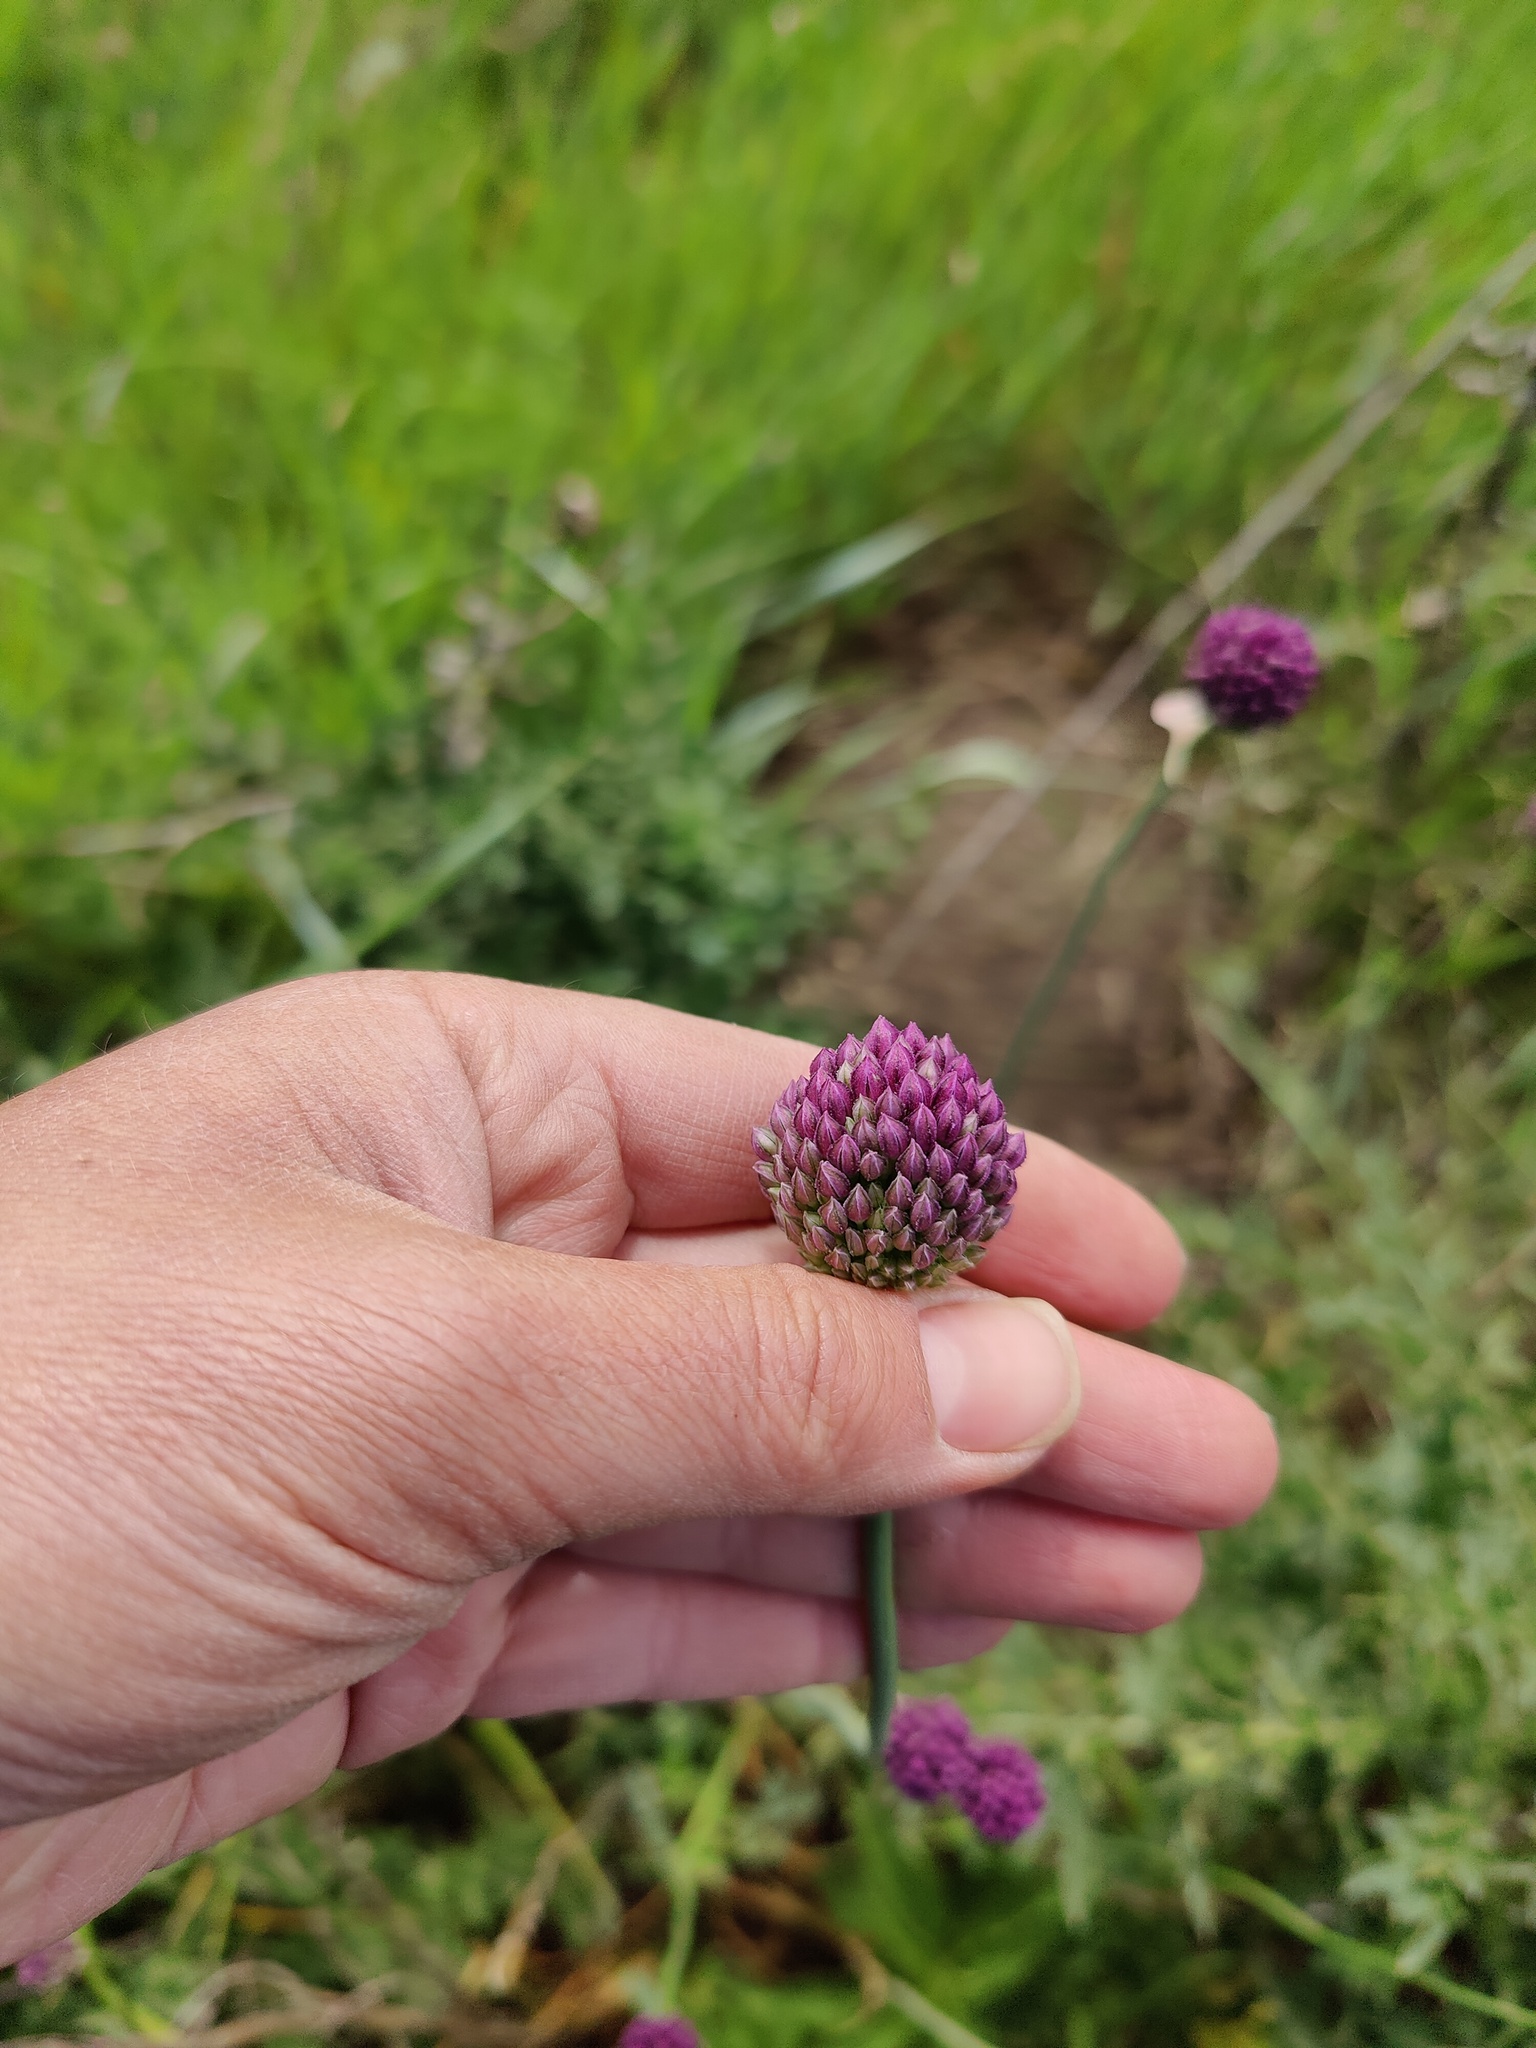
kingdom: Plantae
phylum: Tracheophyta
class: Liliopsida
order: Asparagales
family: Amaryllidaceae
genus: Allium
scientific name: Allium rotundum
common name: Sand leek
